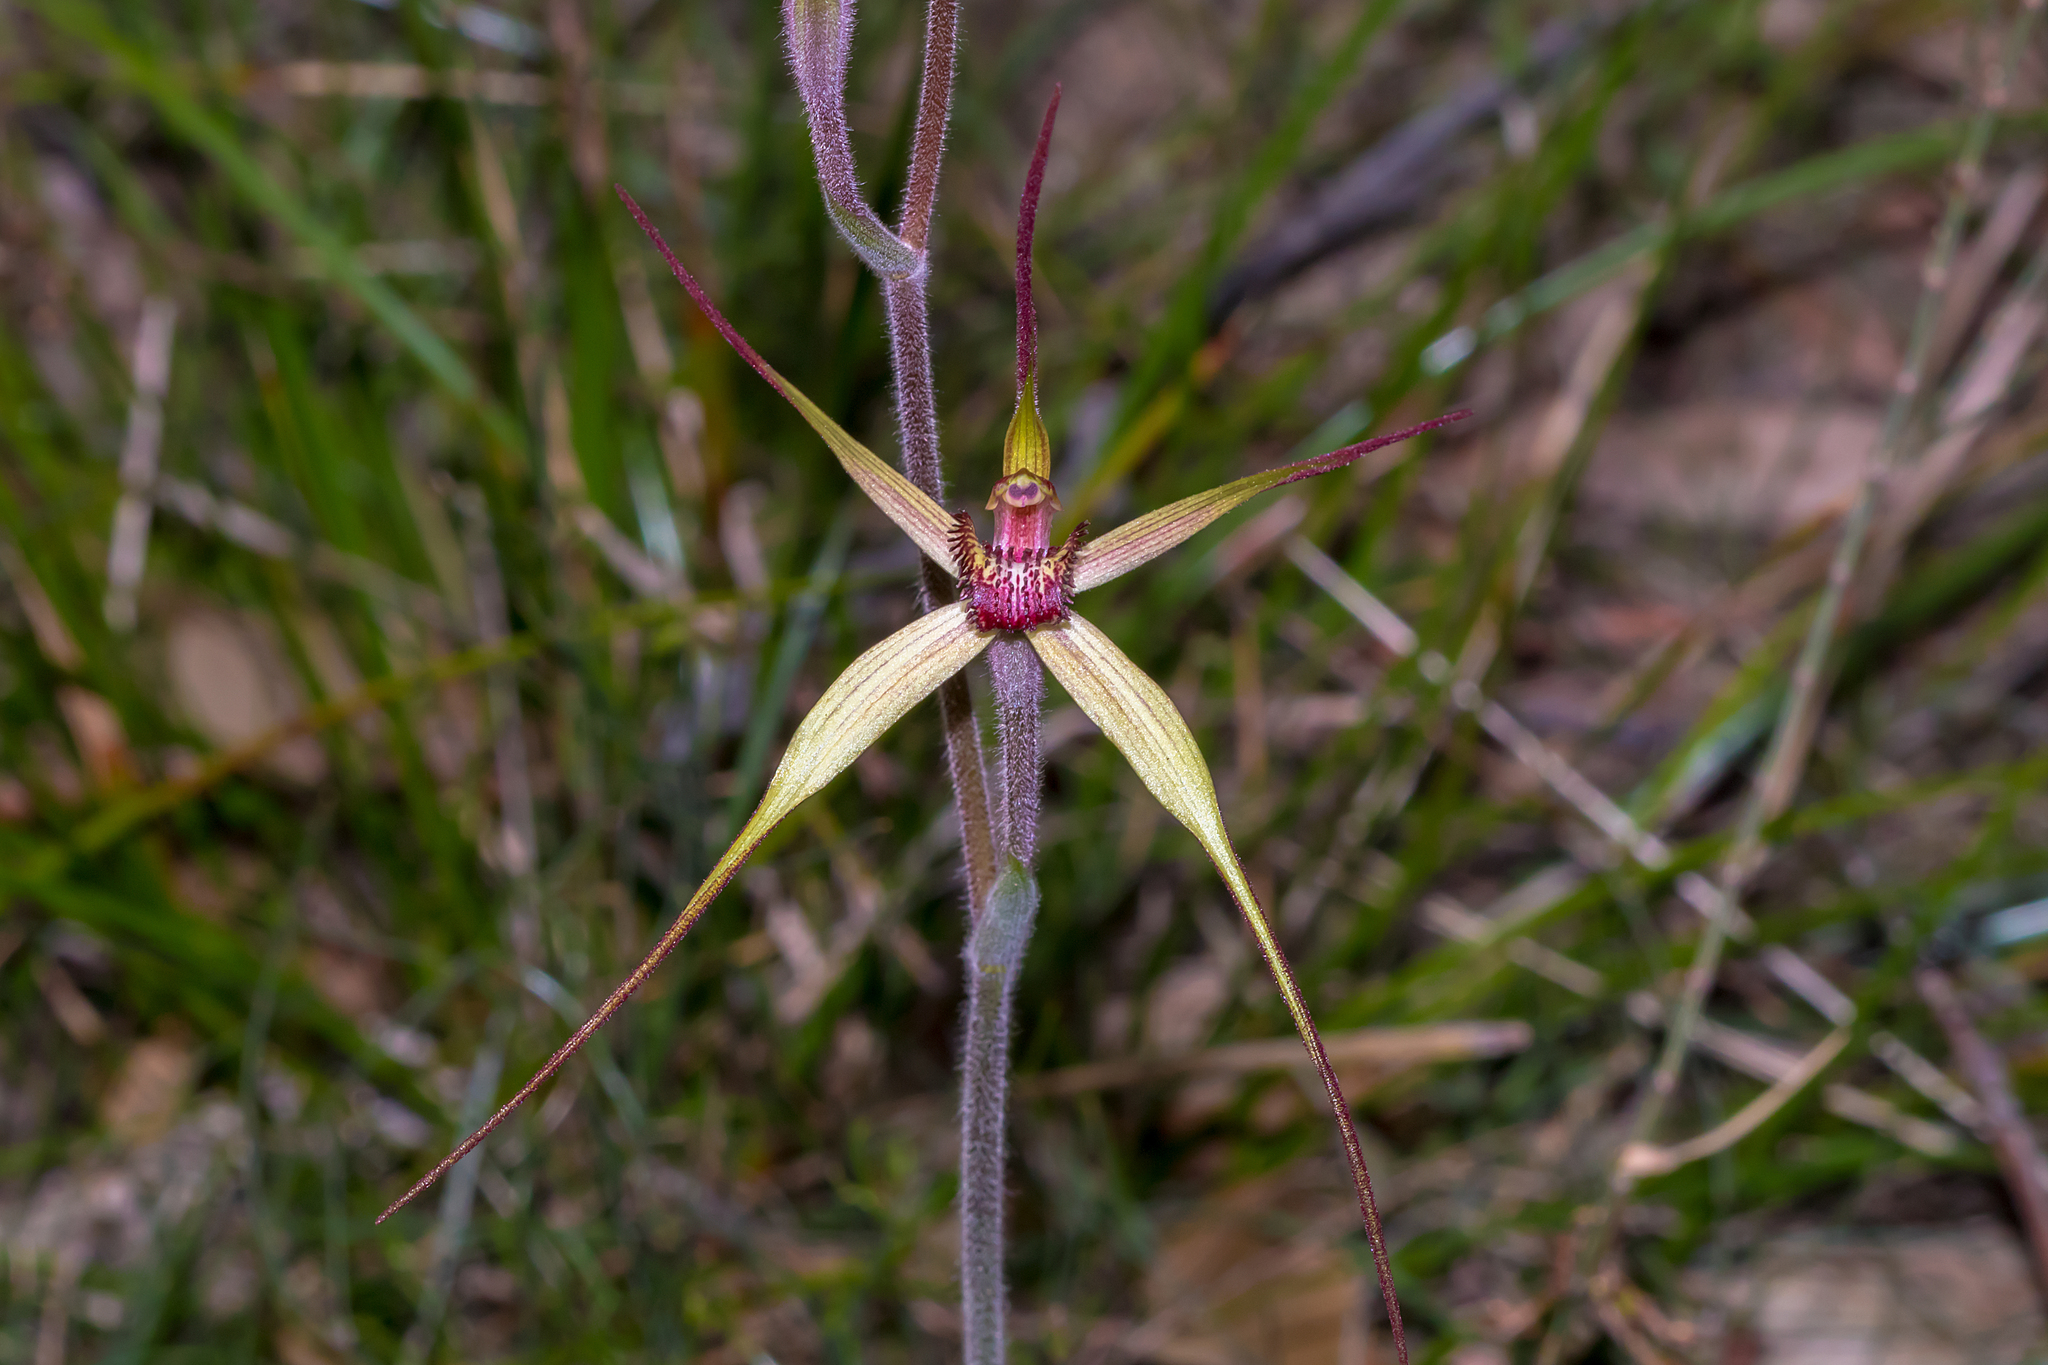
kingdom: Plantae
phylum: Tracheophyta
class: Liliopsida
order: Asparagales
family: Orchidaceae
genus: Caladenia
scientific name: Caladenia oenochila
